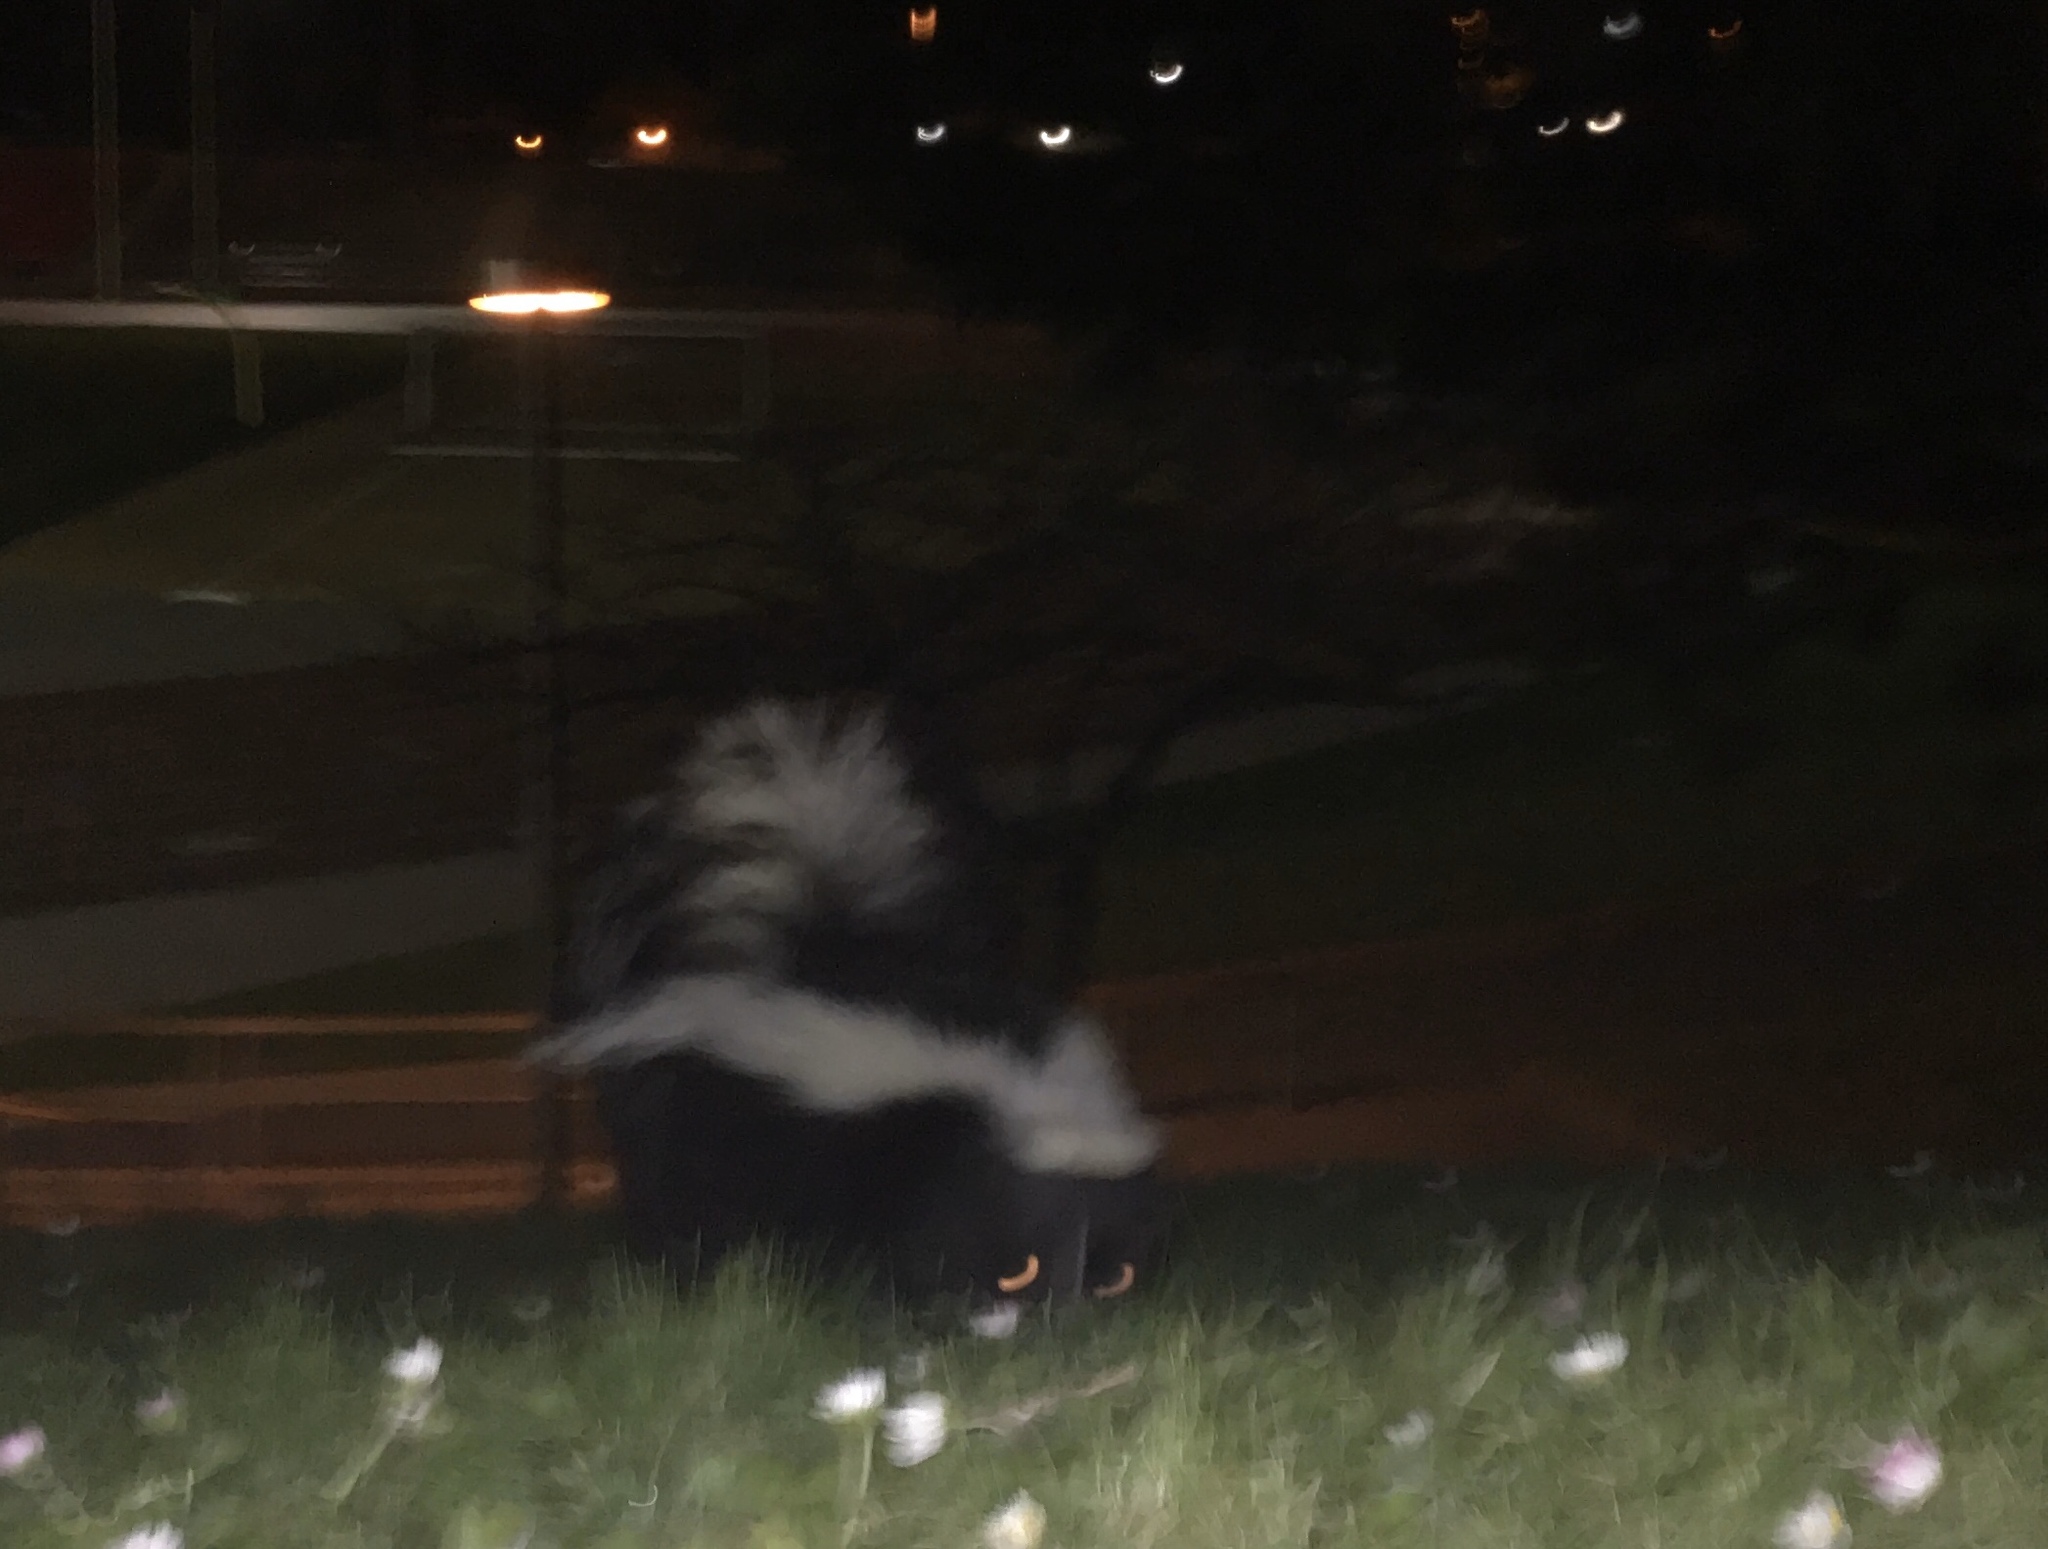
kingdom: Animalia
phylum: Chordata
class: Mammalia
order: Carnivora
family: Mephitidae
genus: Mephitis
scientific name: Mephitis mephitis
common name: Striped skunk
